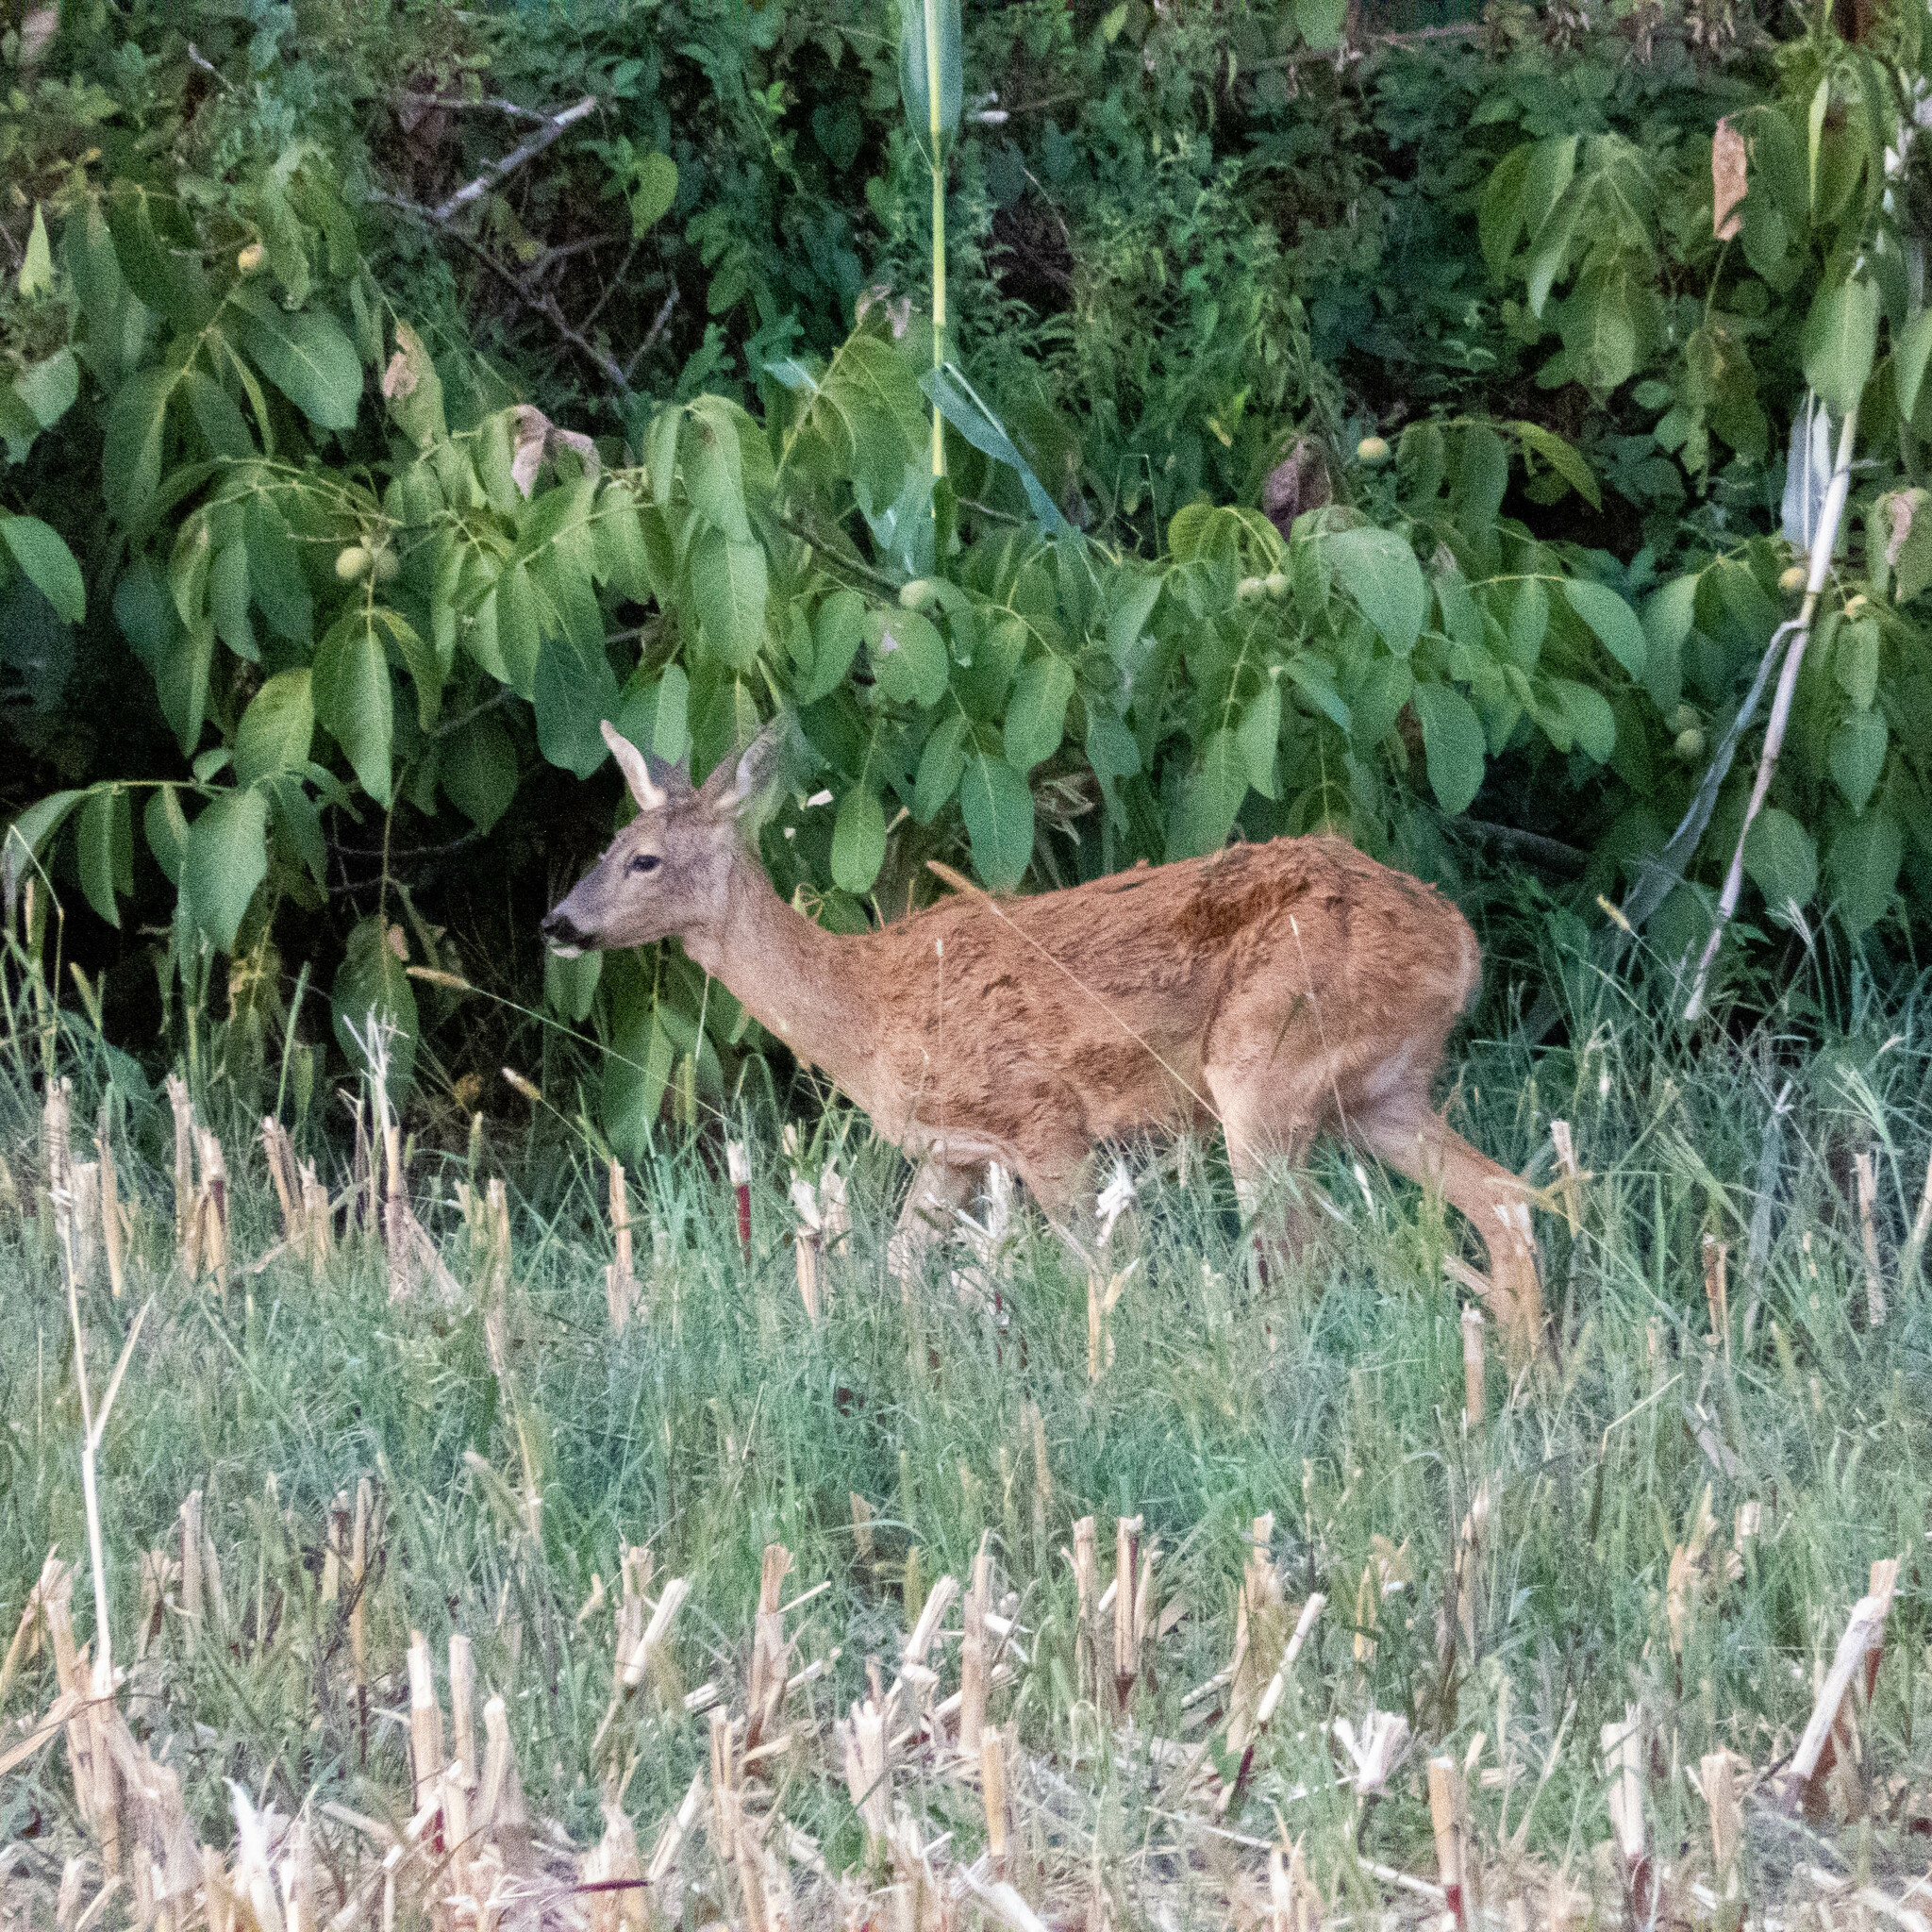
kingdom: Animalia
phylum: Chordata
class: Mammalia
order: Artiodactyla
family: Cervidae
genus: Capreolus
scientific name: Capreolus capreolus
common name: Western roe deer
